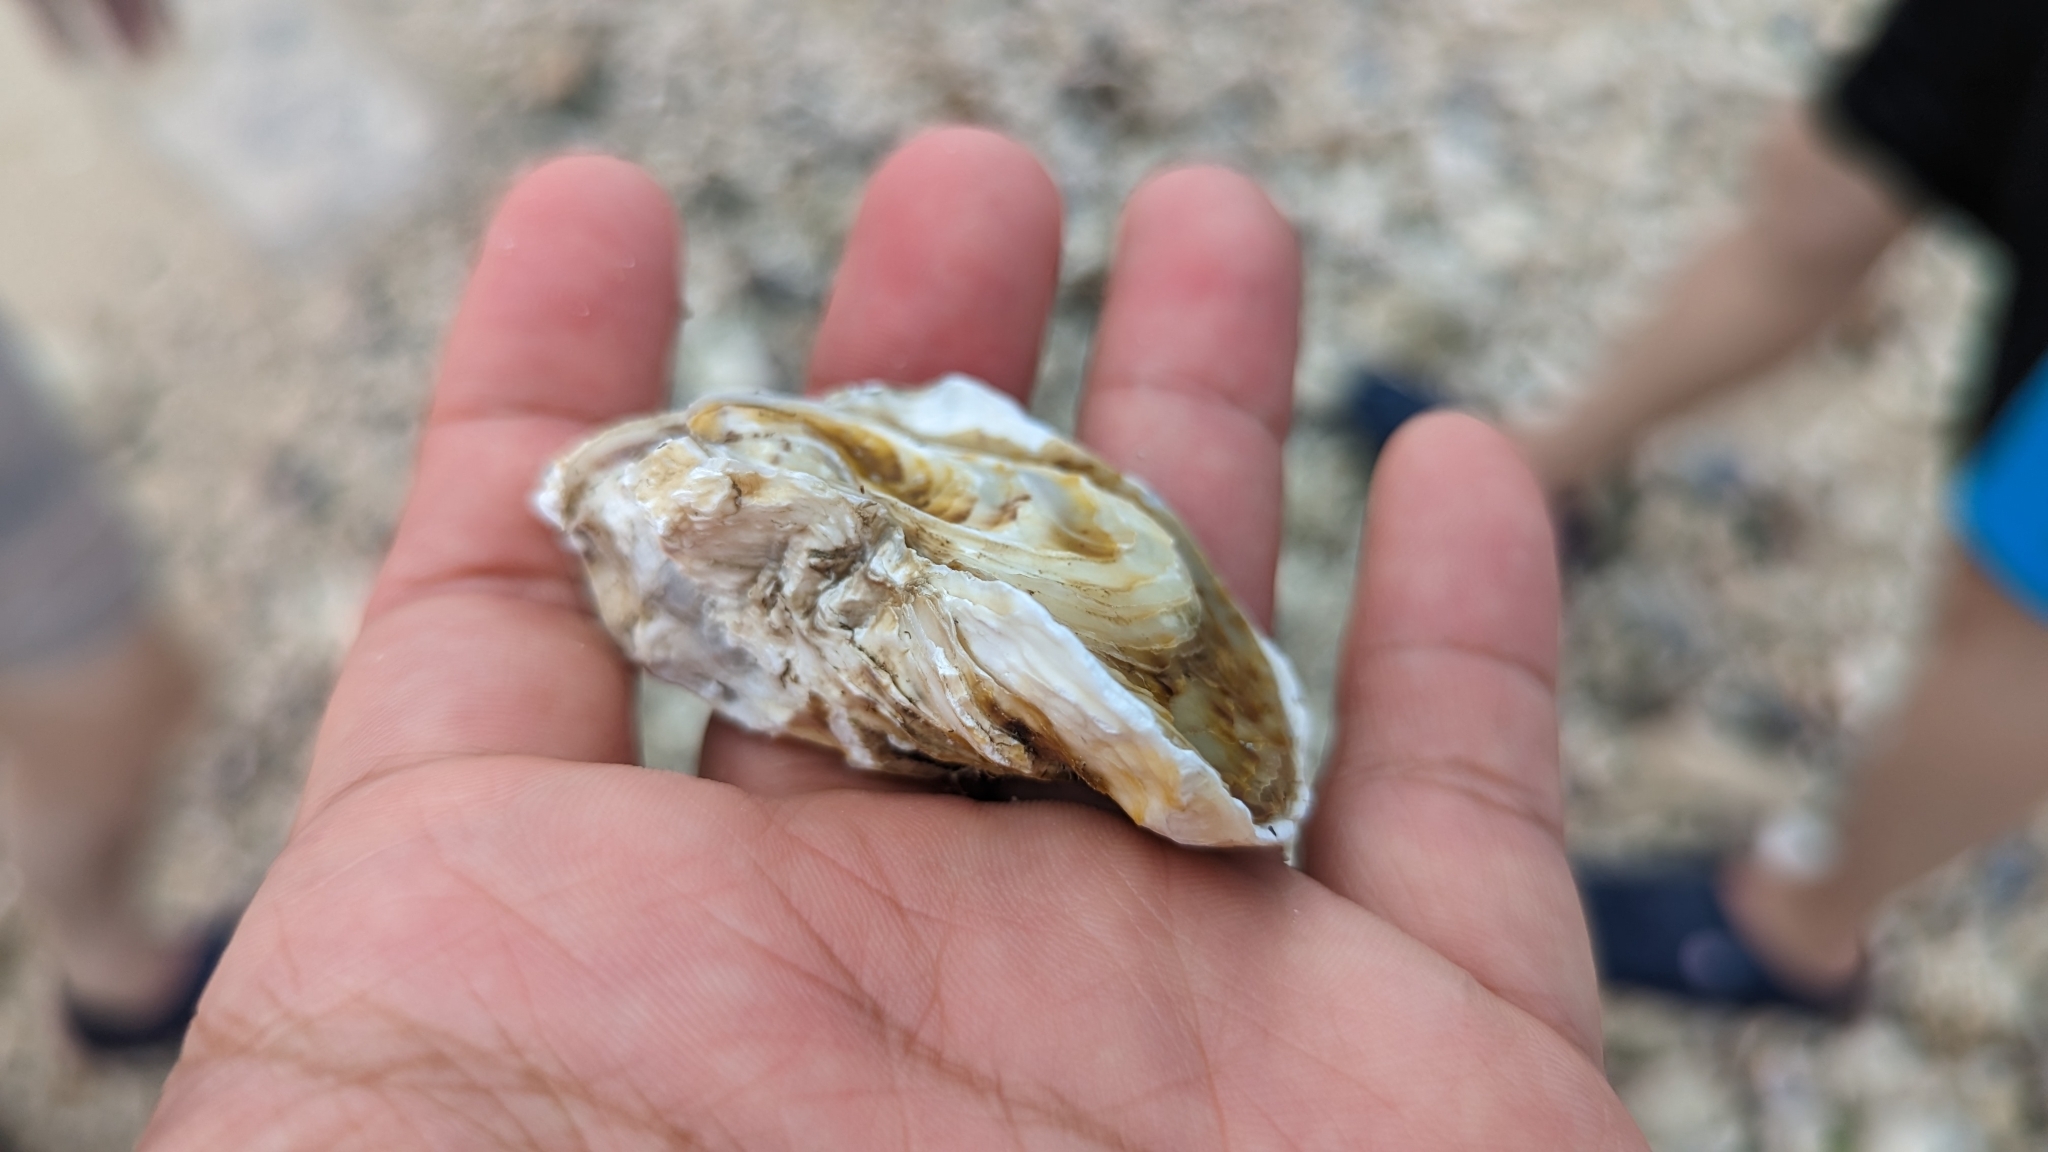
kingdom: Animalia
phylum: Mollusca
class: Bivalvia
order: Ostreida
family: Ostreidae
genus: Magallana
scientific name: Magallana angulata
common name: Portuguese oyster
